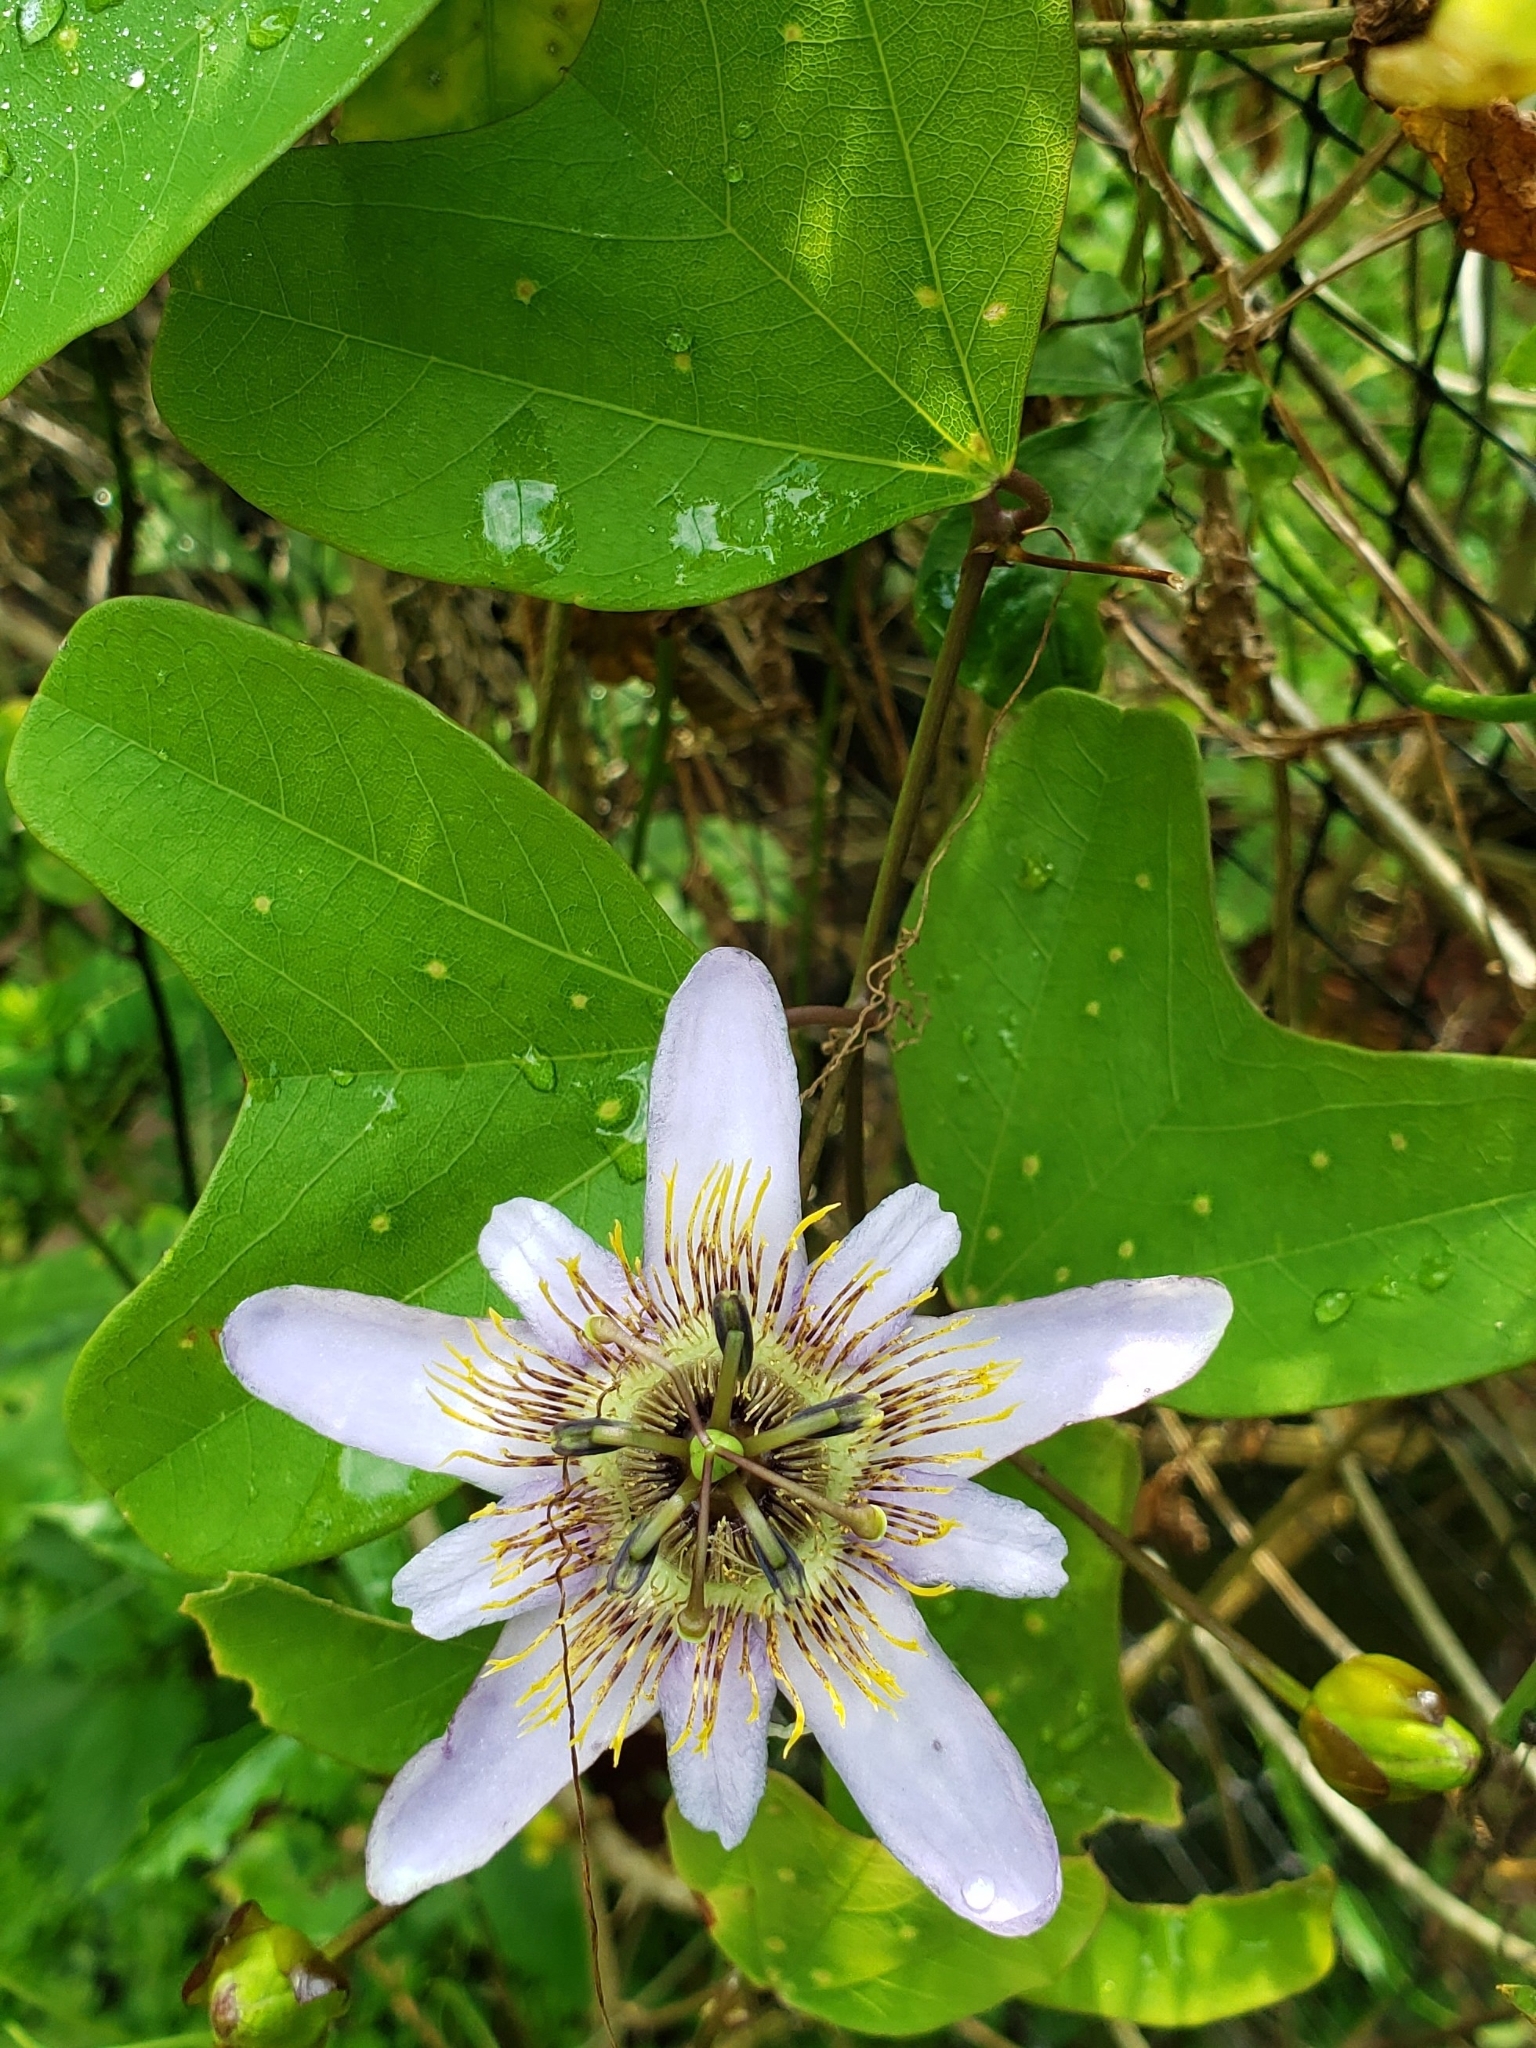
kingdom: Plantae
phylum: Tracheophyta
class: Magnoliopsida
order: Malpighiales
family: Passifloraceae
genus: Passiflora
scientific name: Passiflora bicornis
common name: Wingleaf passionflower
